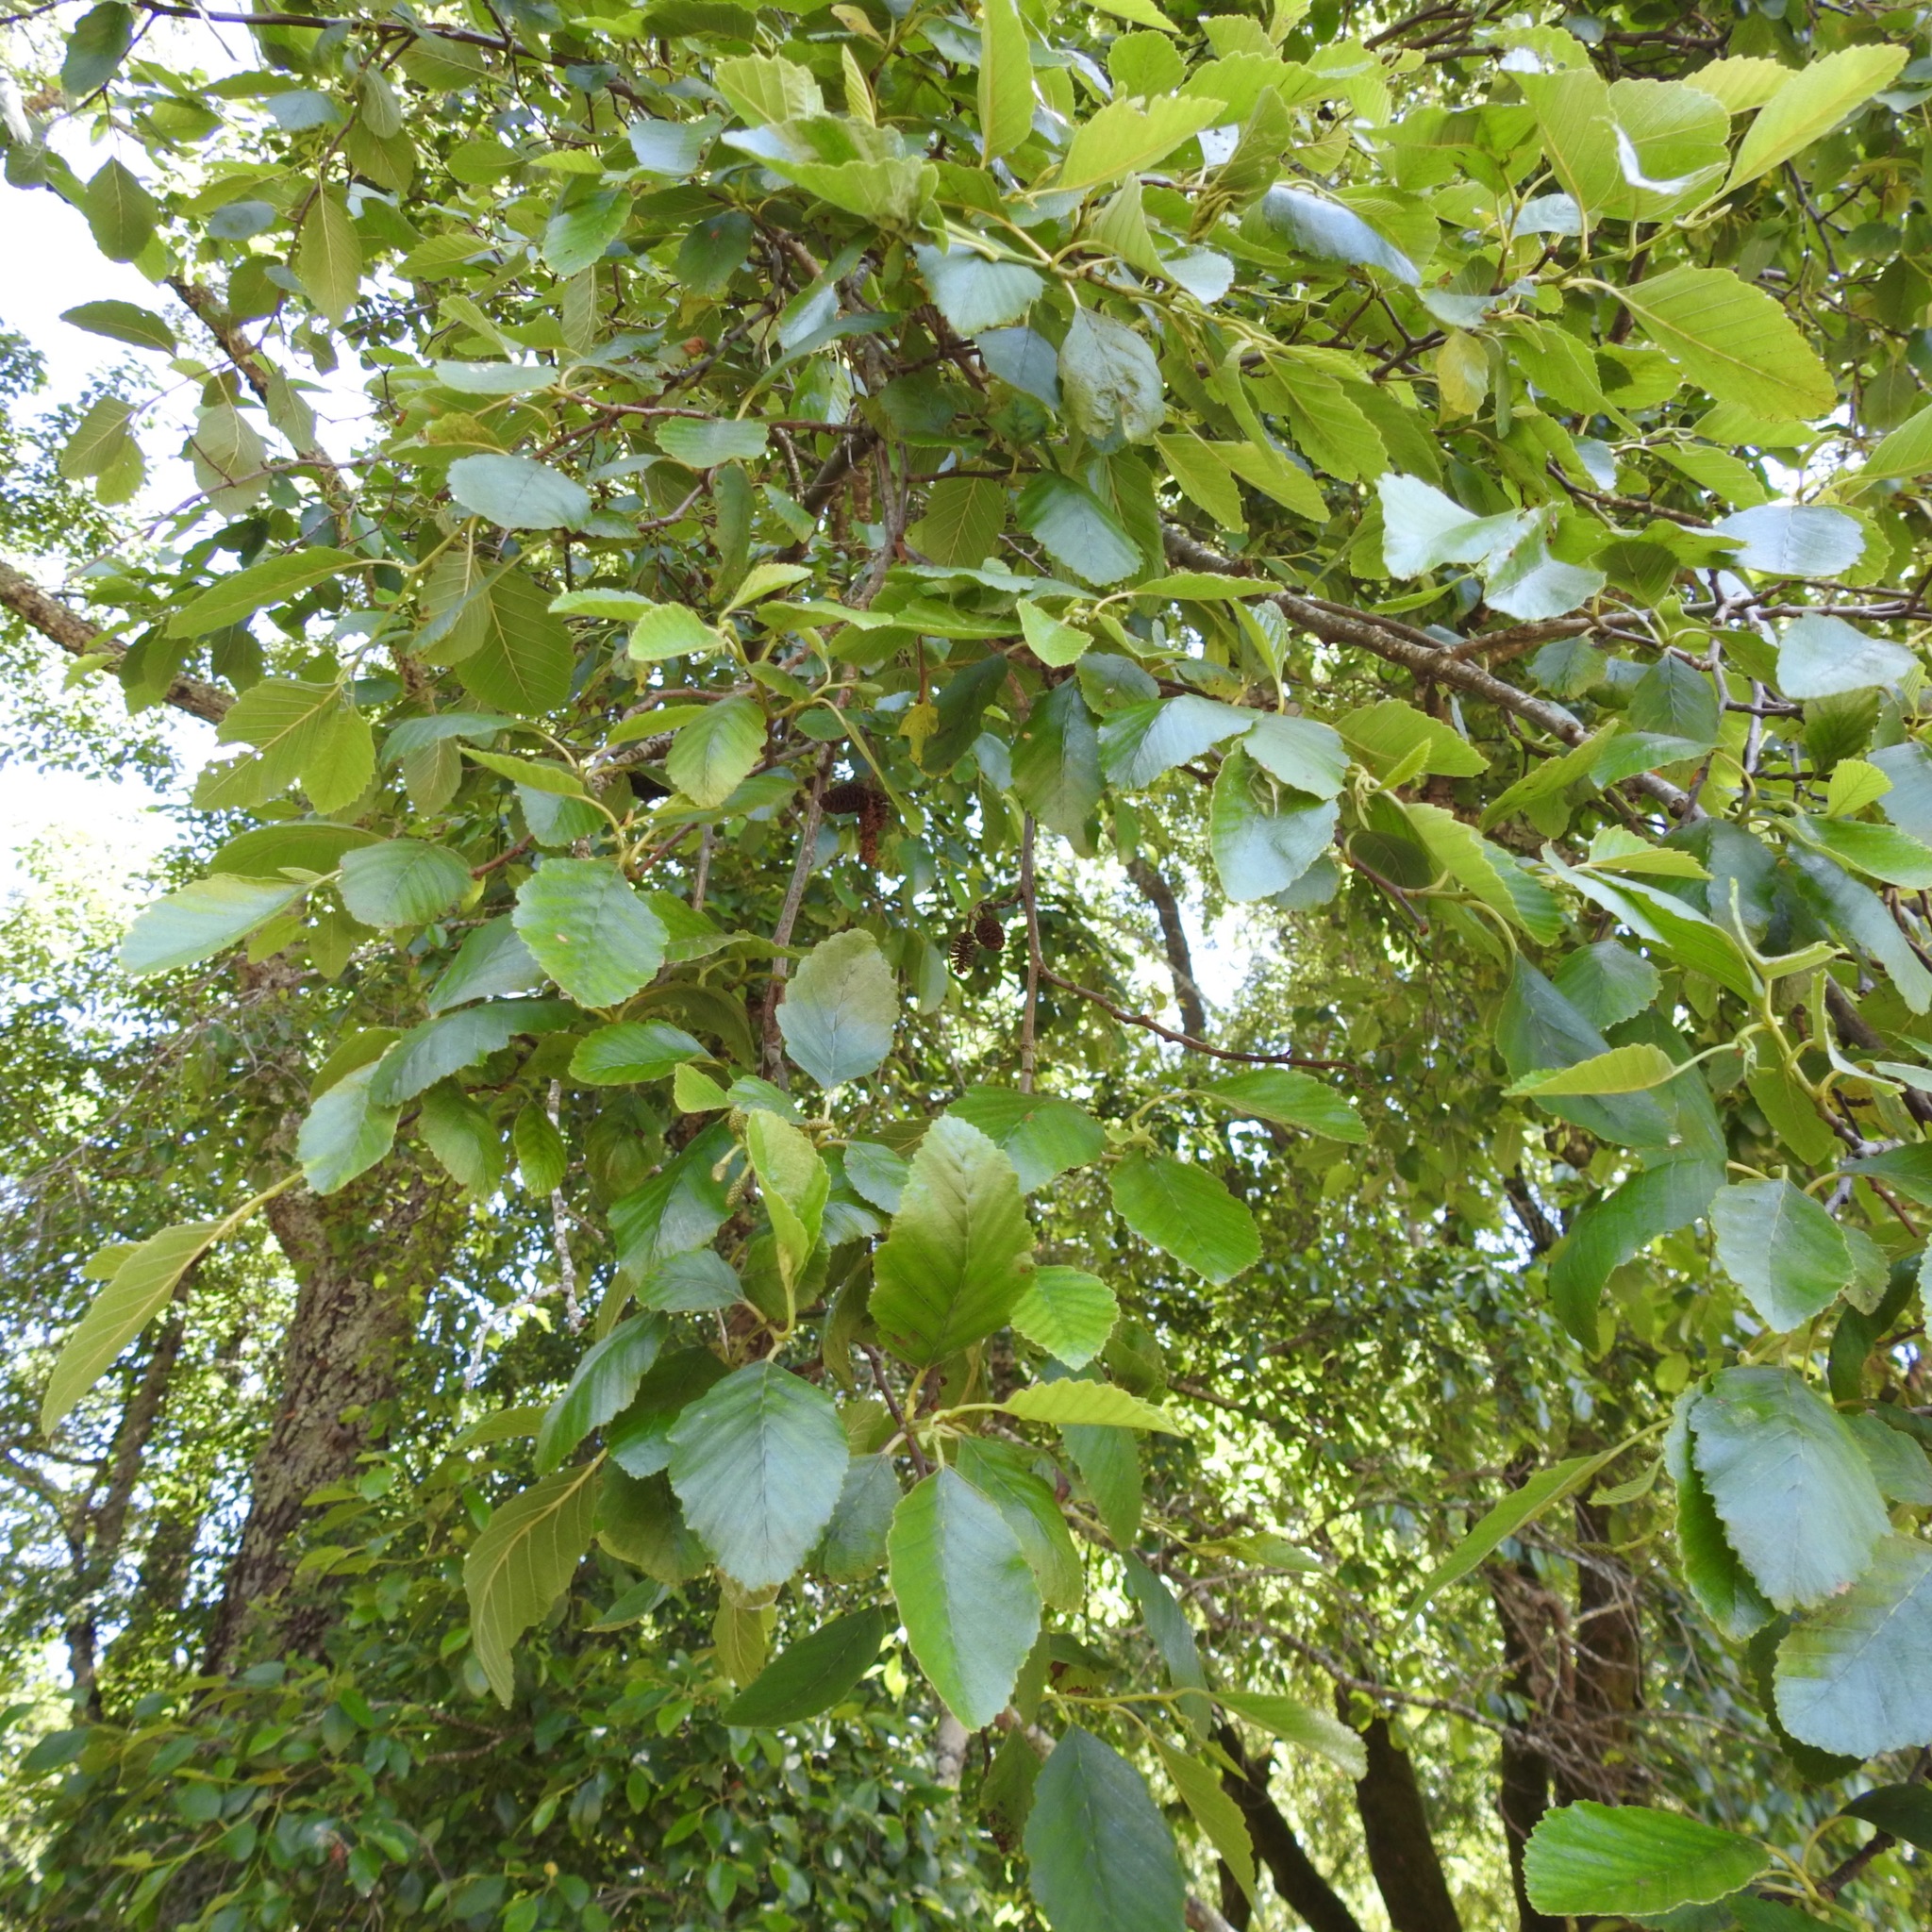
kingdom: Plantae
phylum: Tracheophyta
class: Magnoliopsida
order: Fagales
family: Betulaceae
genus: Alnus
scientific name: Alnus rhombifolia
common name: California alder
